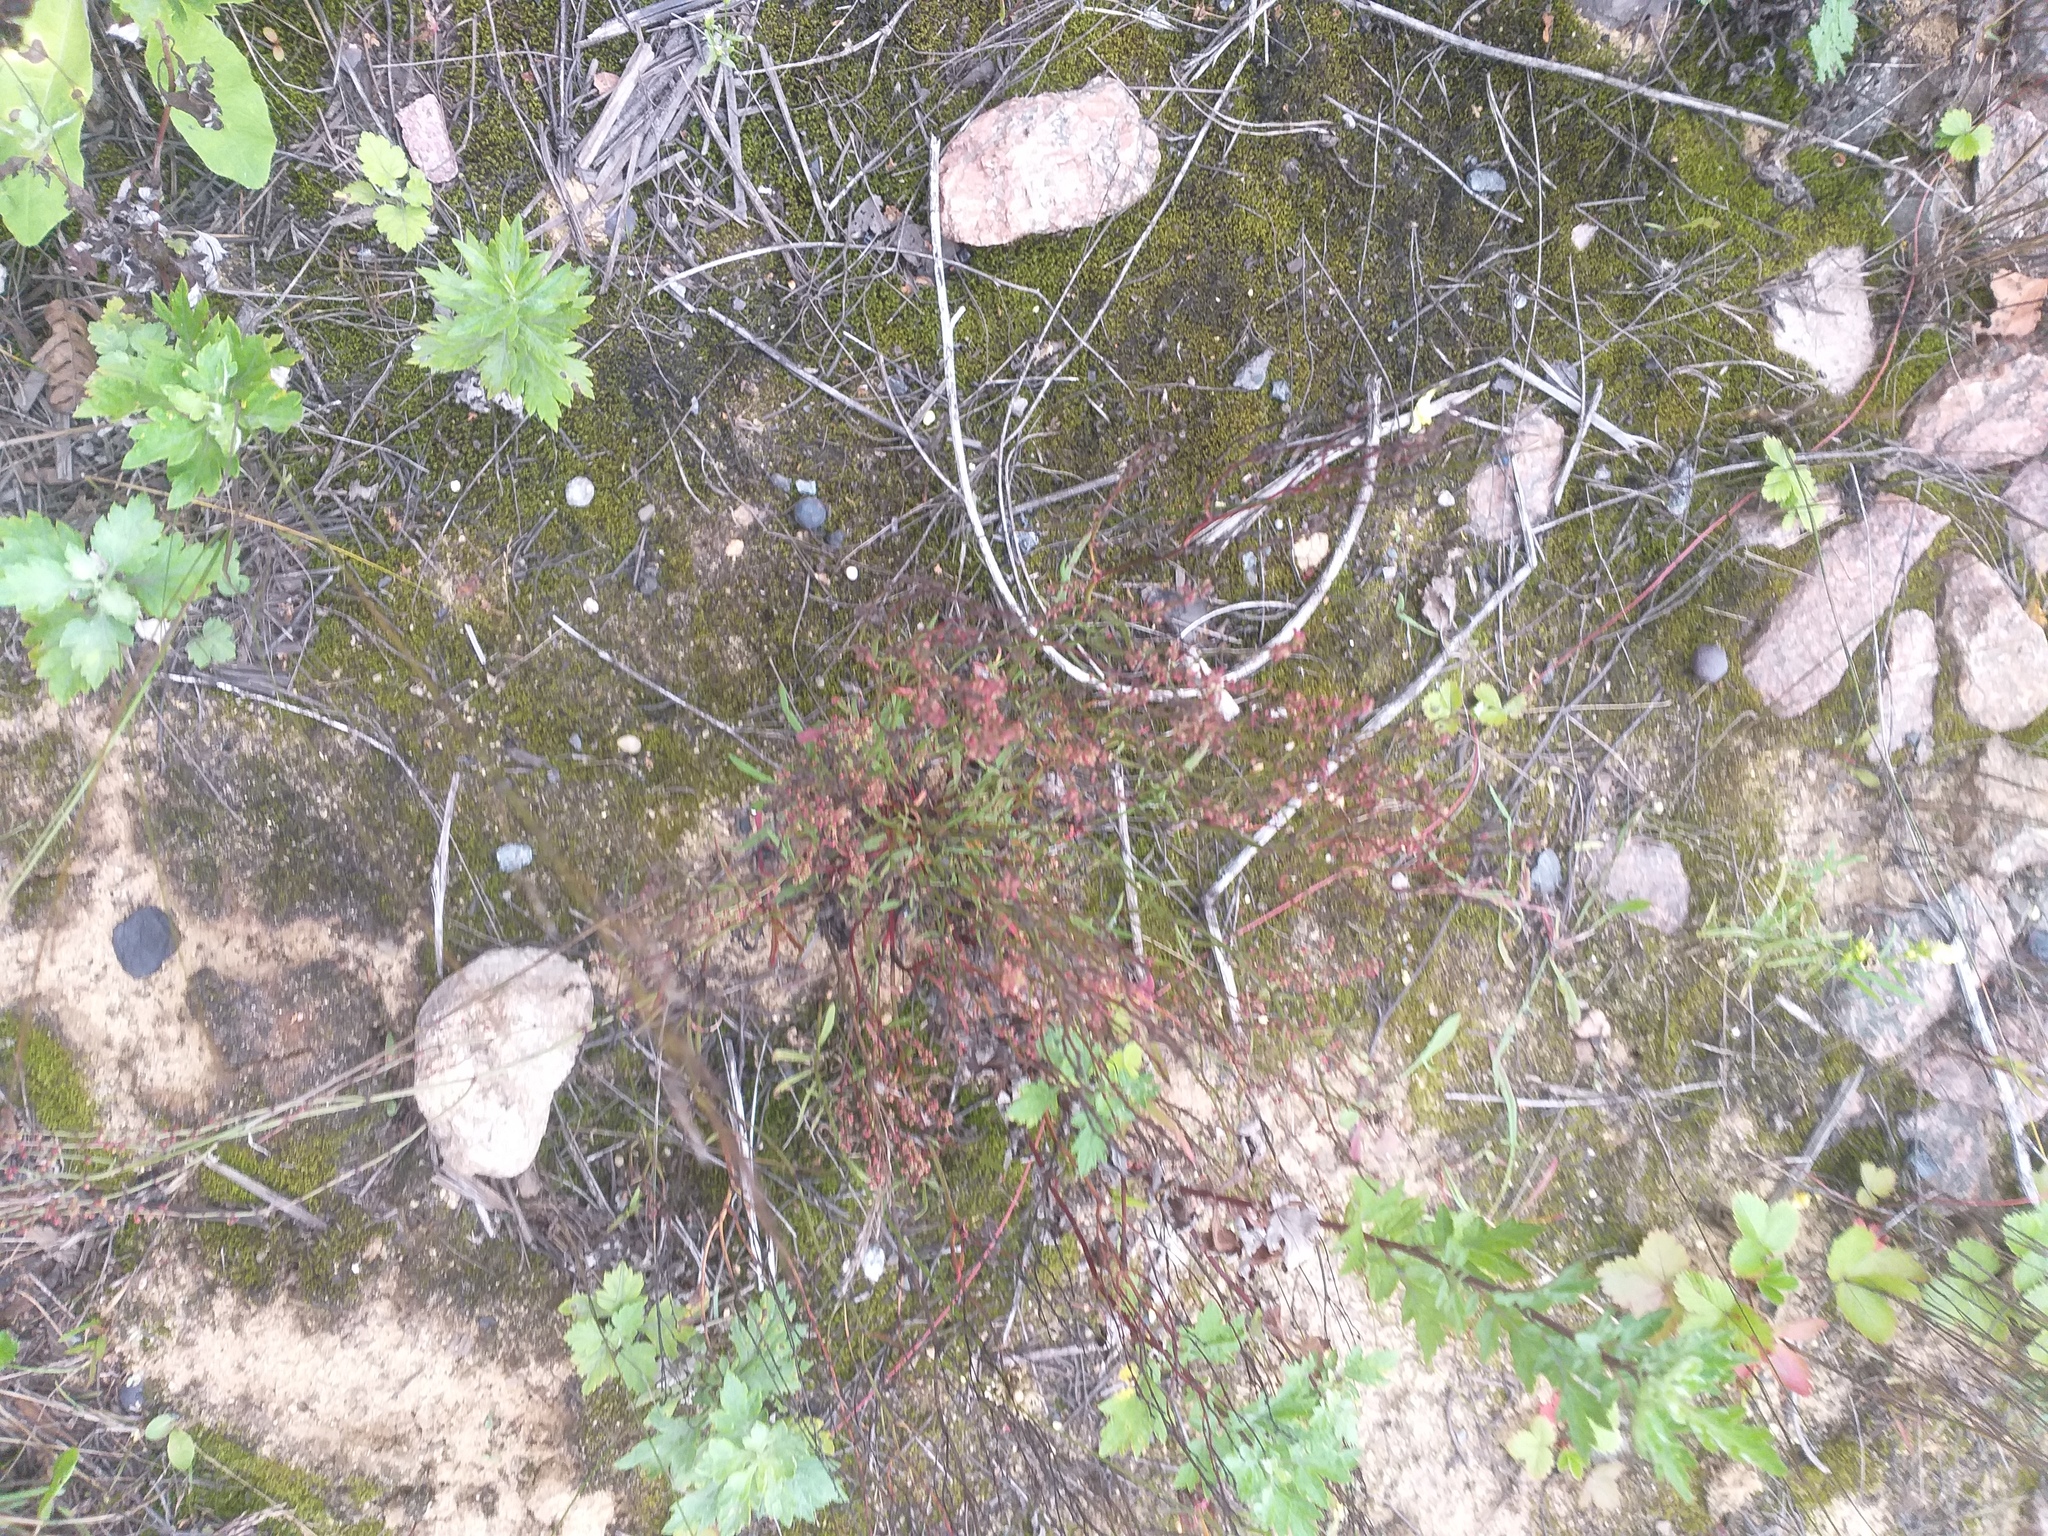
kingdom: Plantae
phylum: Tracheophyta
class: Magnoliopsida
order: Caryophyllales
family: Polygonaceae
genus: Rumex
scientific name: Rumex acetosella
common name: Common sheep sorrel
